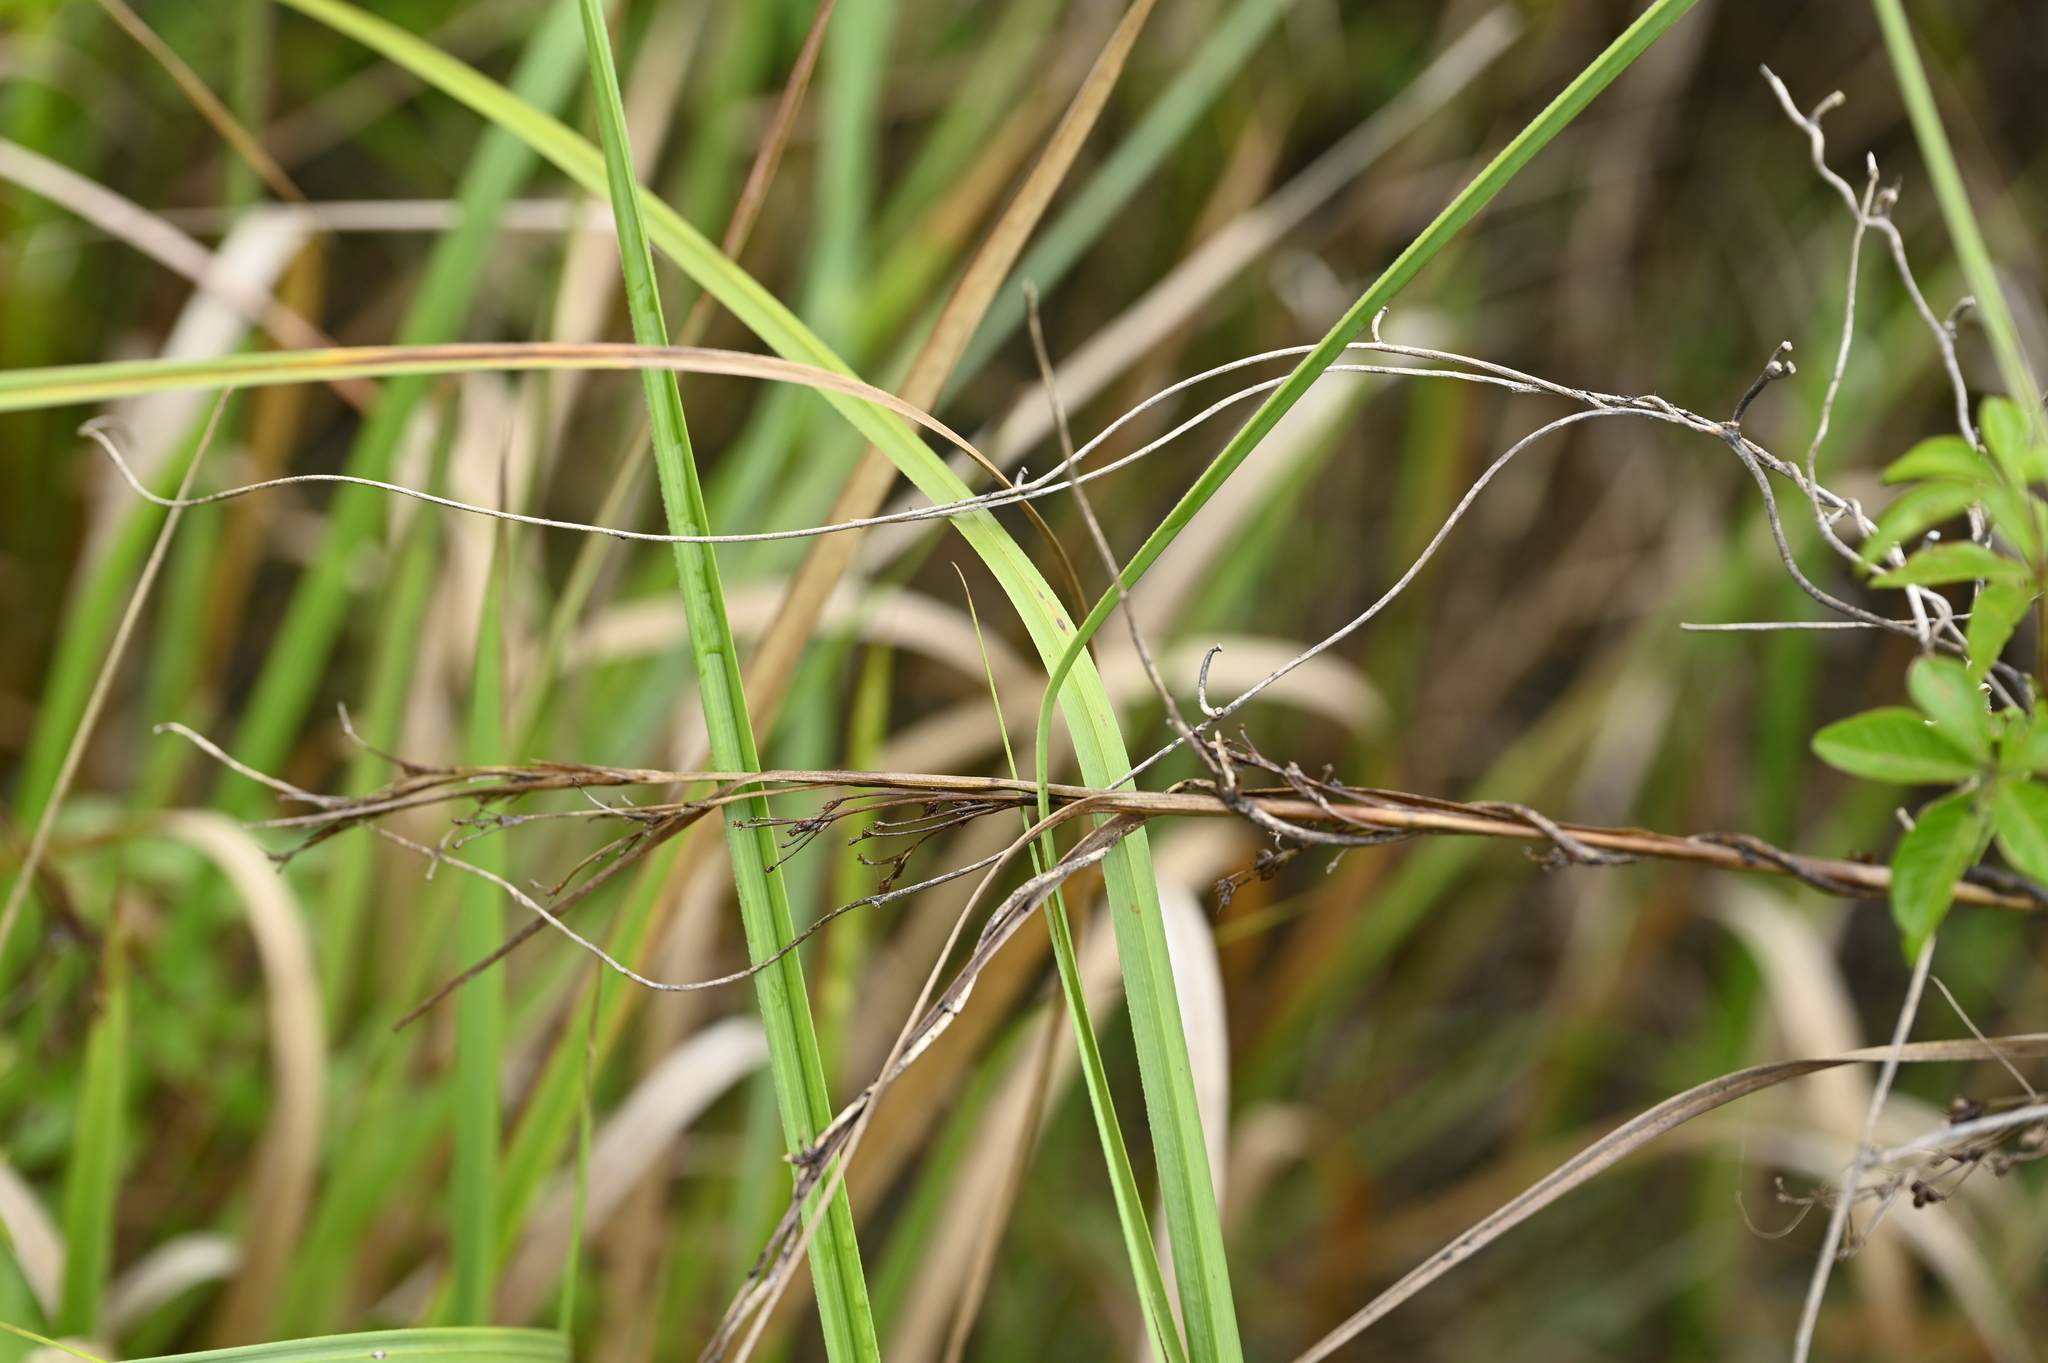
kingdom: Plantae
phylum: Tracheophyta
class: Liliopsida
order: Poales
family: Cyperaceae
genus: Cladium
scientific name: Cladium mariscus
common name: Great fen-sedge
